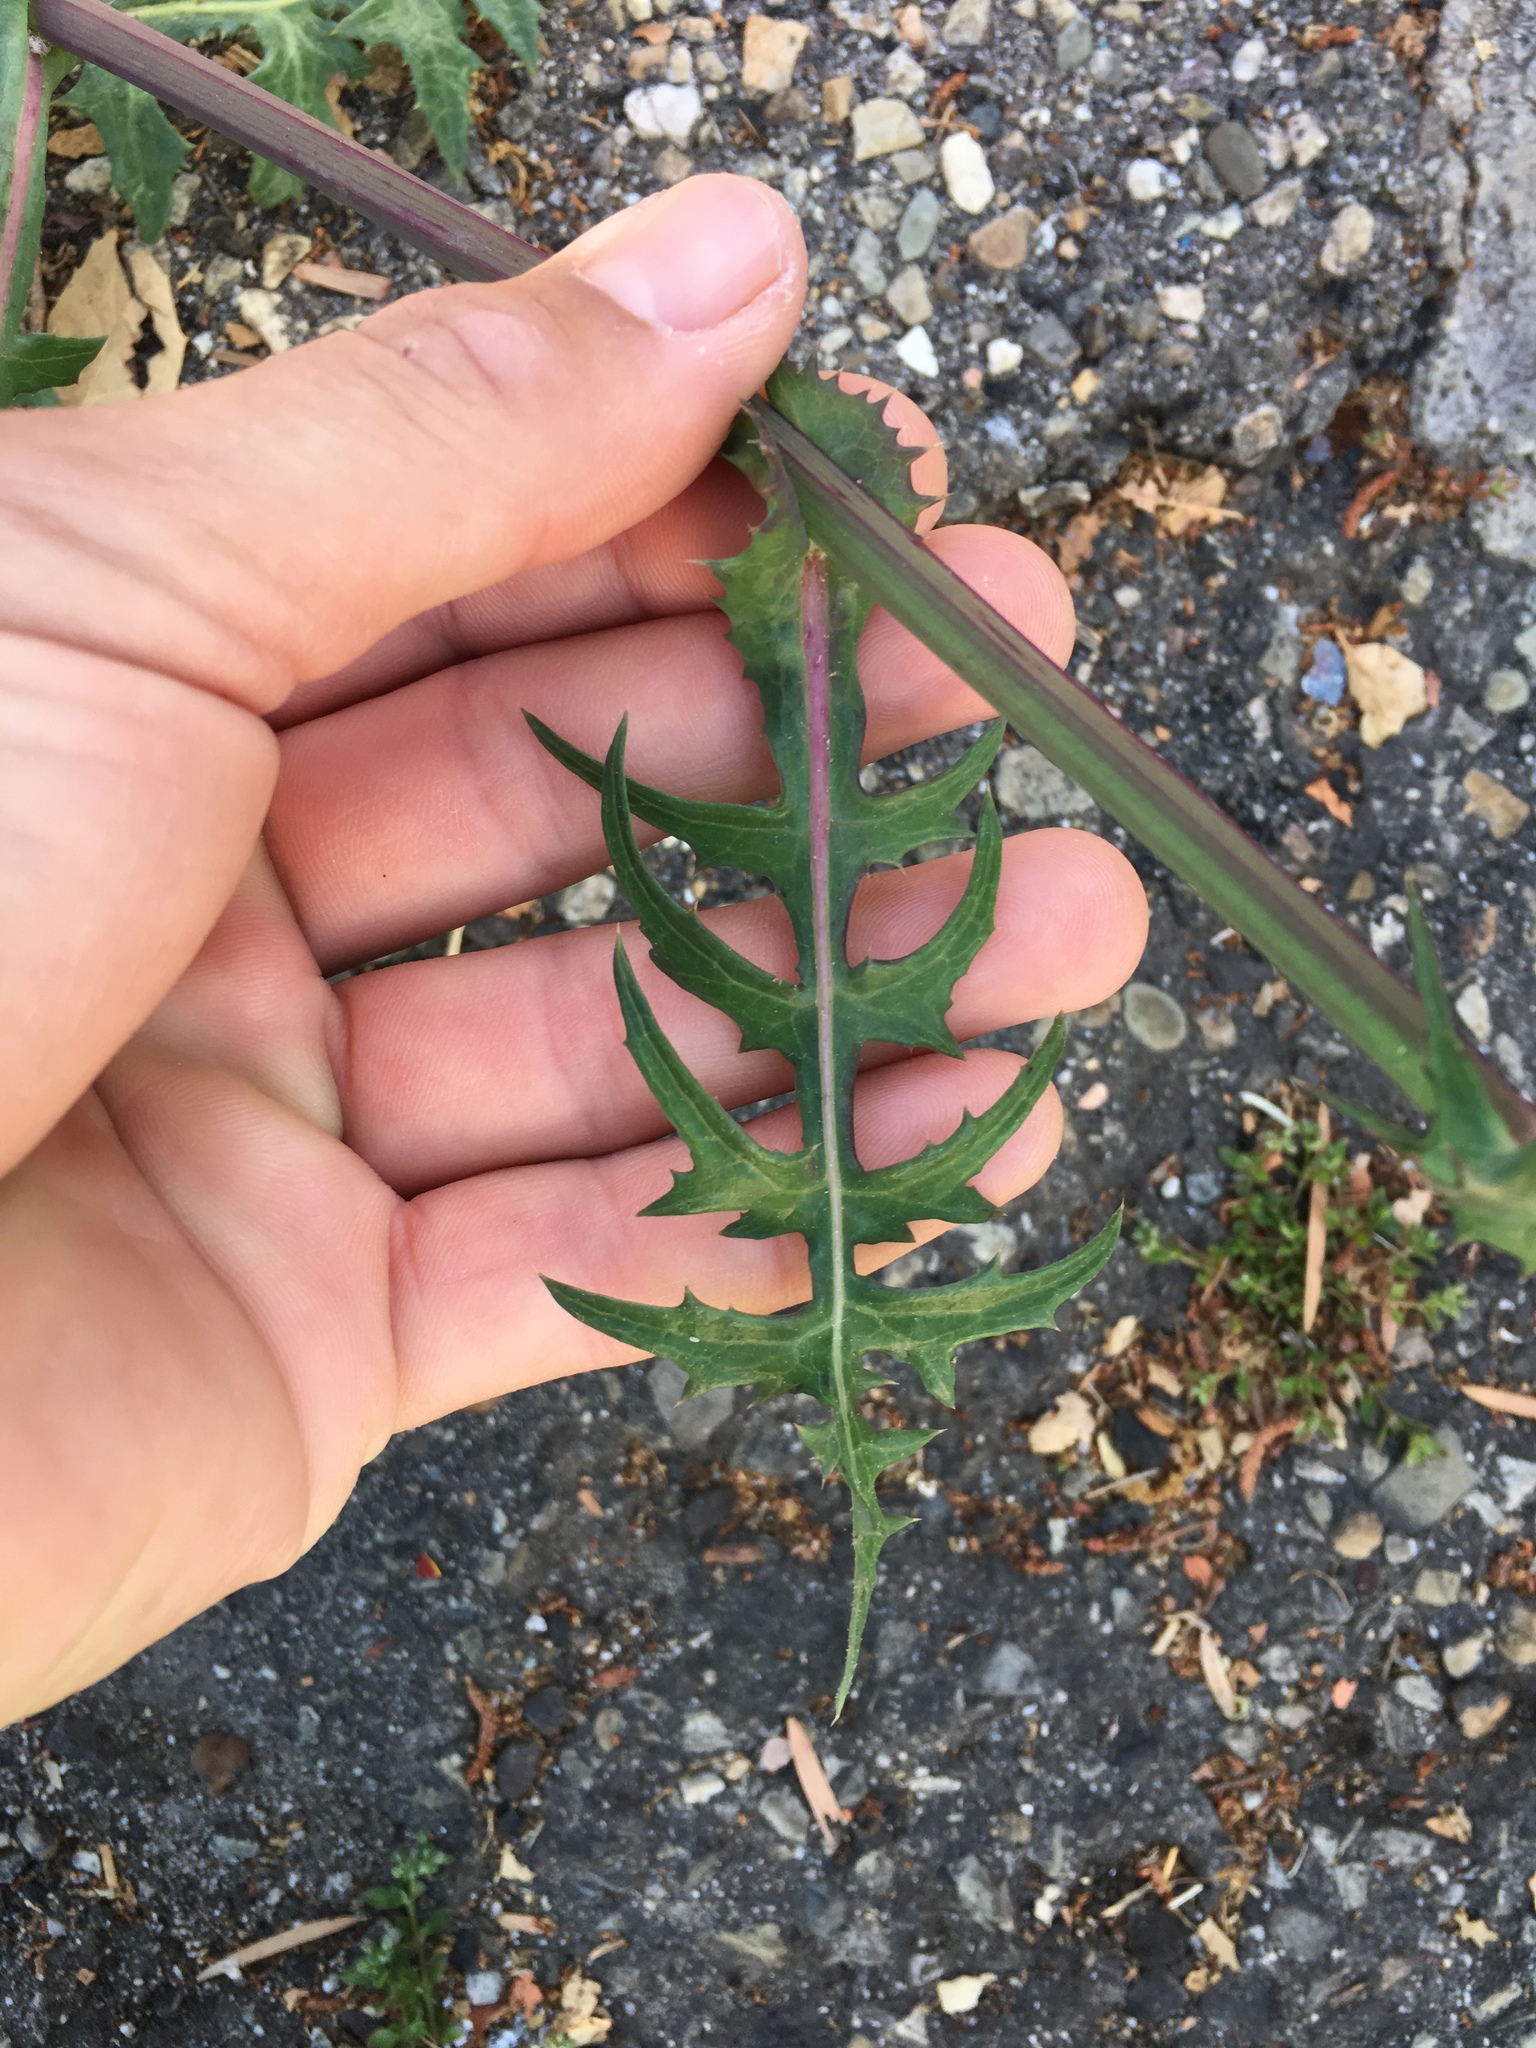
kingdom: Plantae
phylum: Tracheophyta
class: Magnoliopsida
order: Asterales
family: Asteraceae
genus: Sonchus
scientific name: Sonchus oleraceus
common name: Common sowthistle
